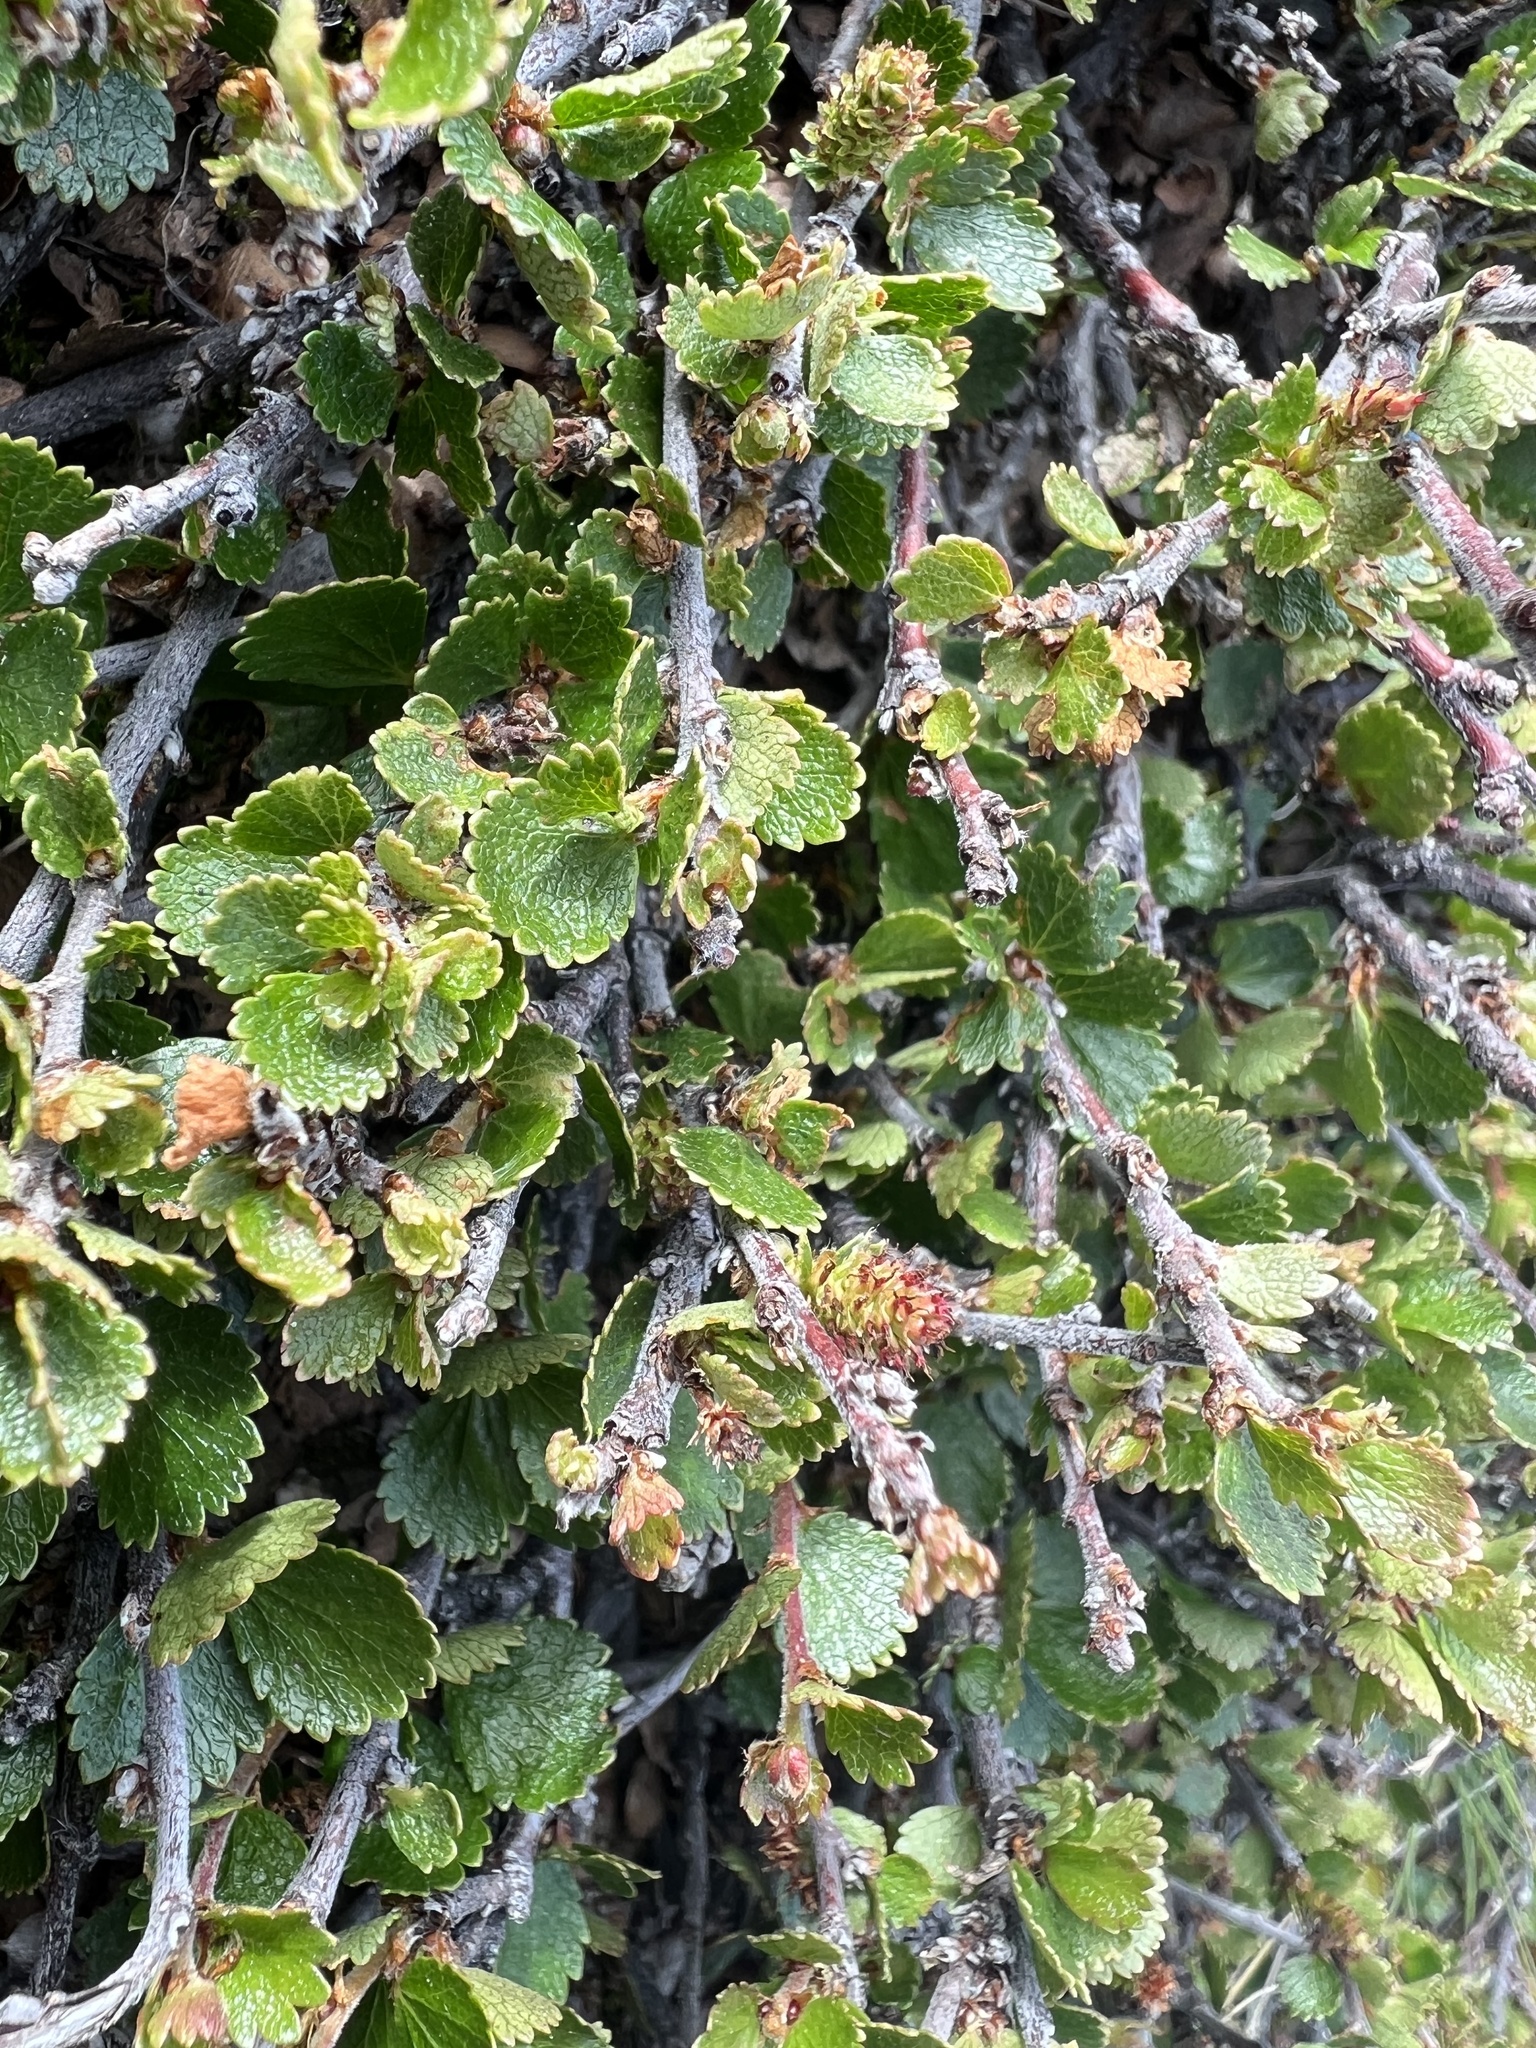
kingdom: Plantae
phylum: Tracheophyta
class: Magnoliopsida
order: Fagales
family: Betulaceae
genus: Betula
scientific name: Betula nana
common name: Arctic dwarf birch
